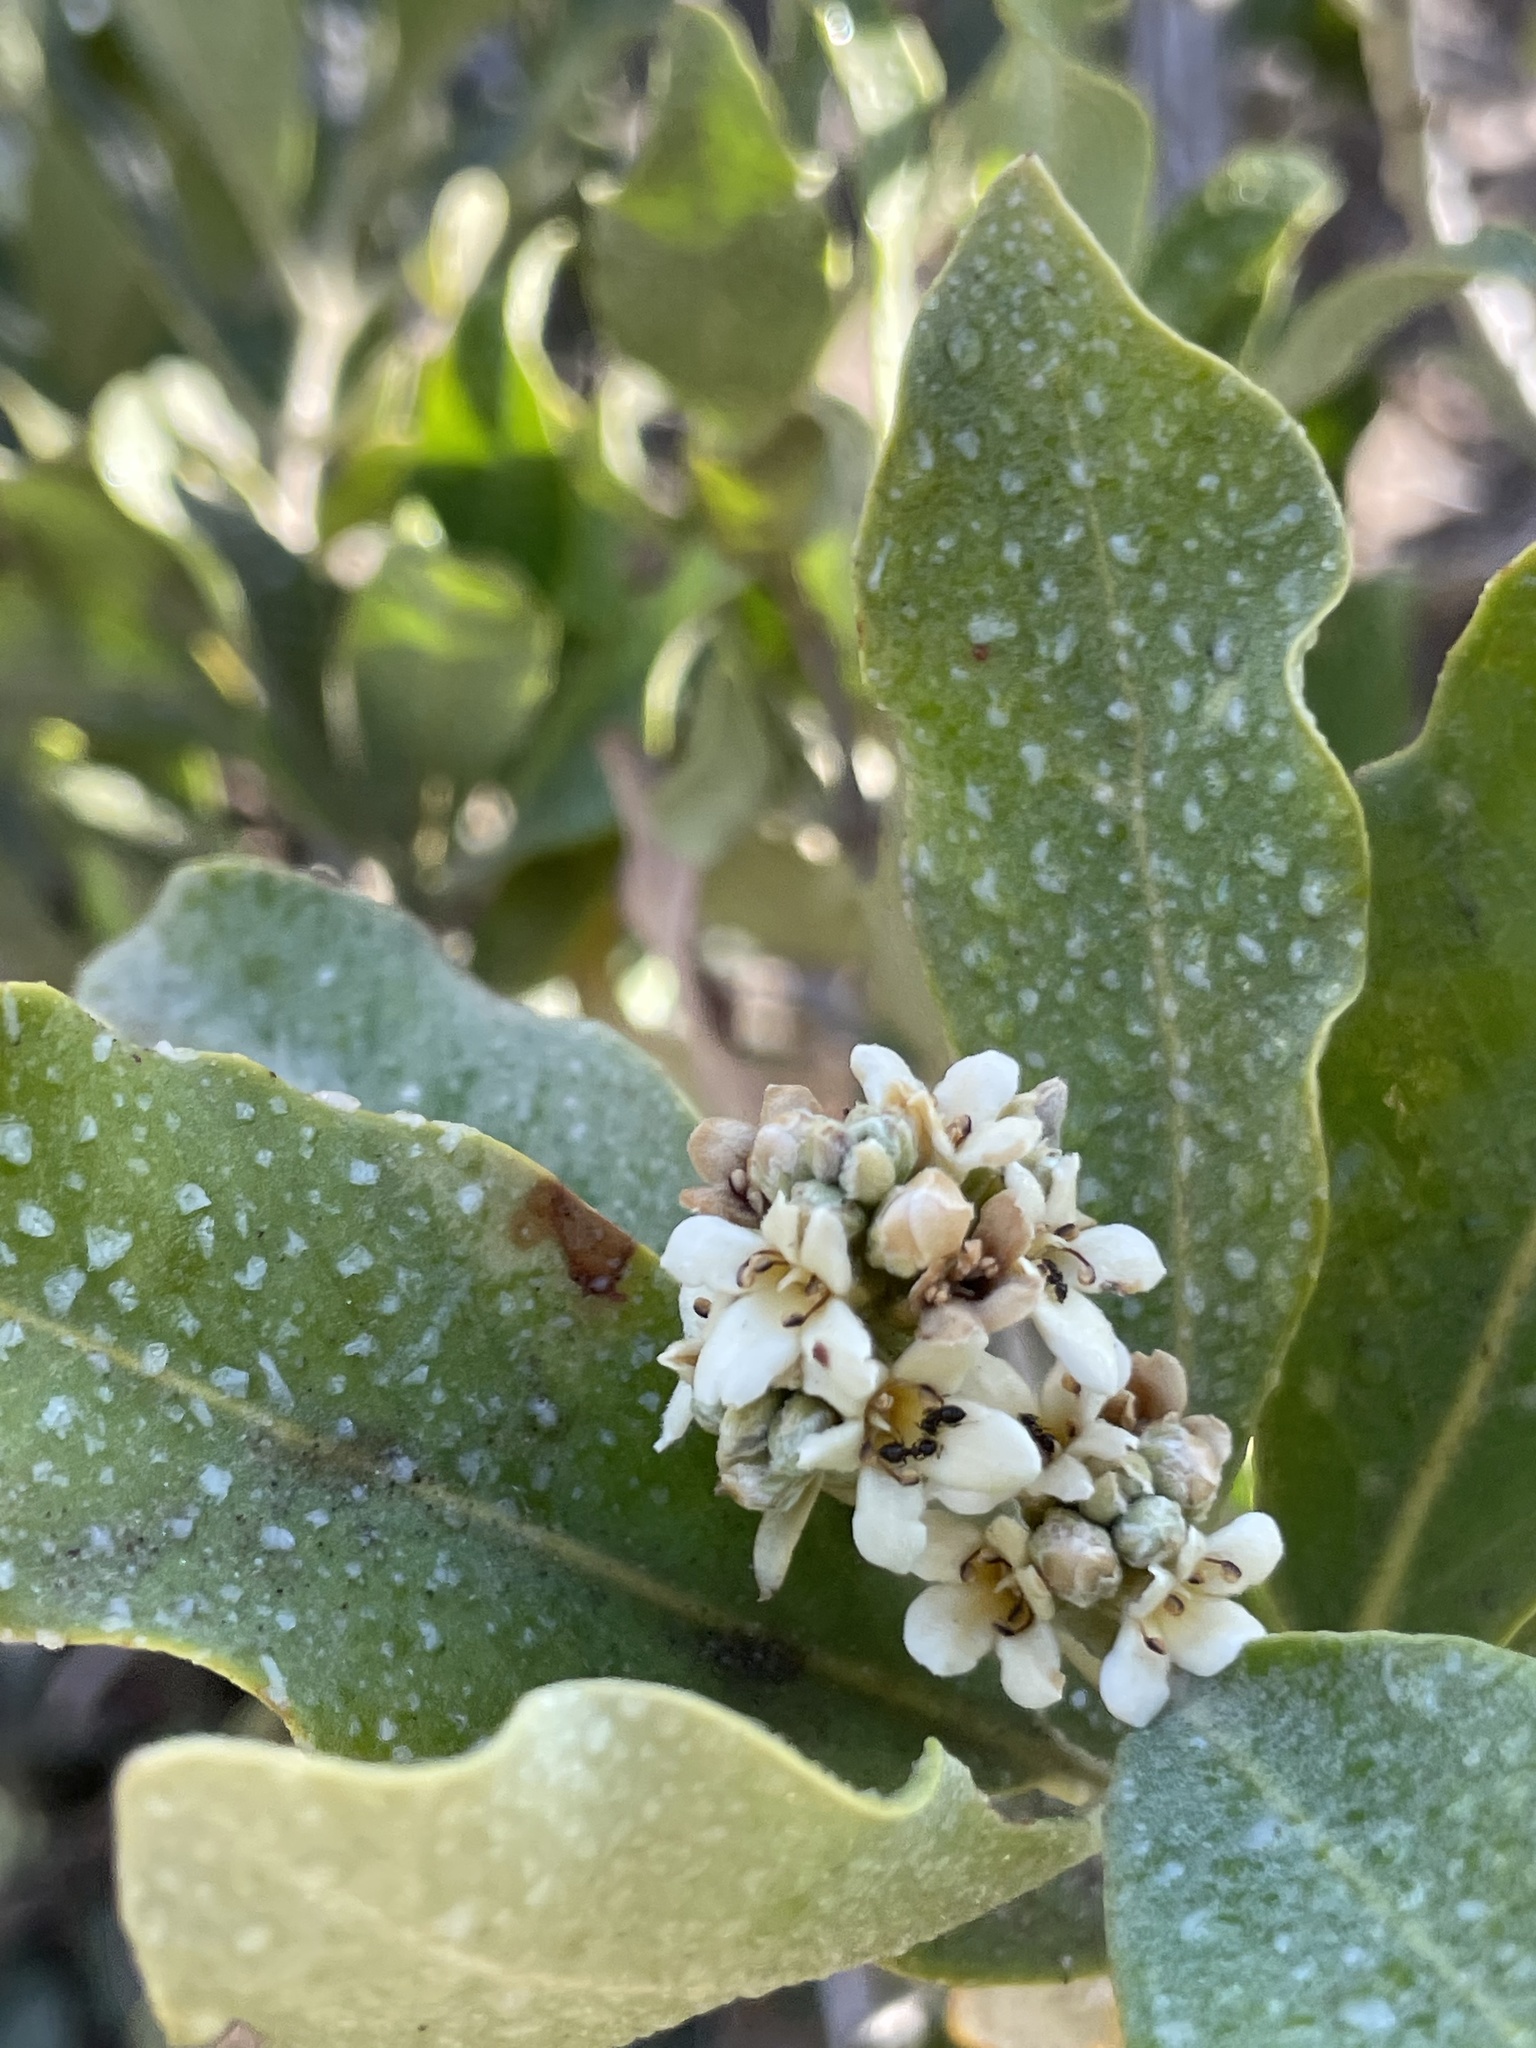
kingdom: Plantae
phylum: Tracheophyta
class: Magnoliopsida
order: Lamiales
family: Acanthaceae
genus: Avicennia
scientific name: Avicennia germinans
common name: Black mangrove
